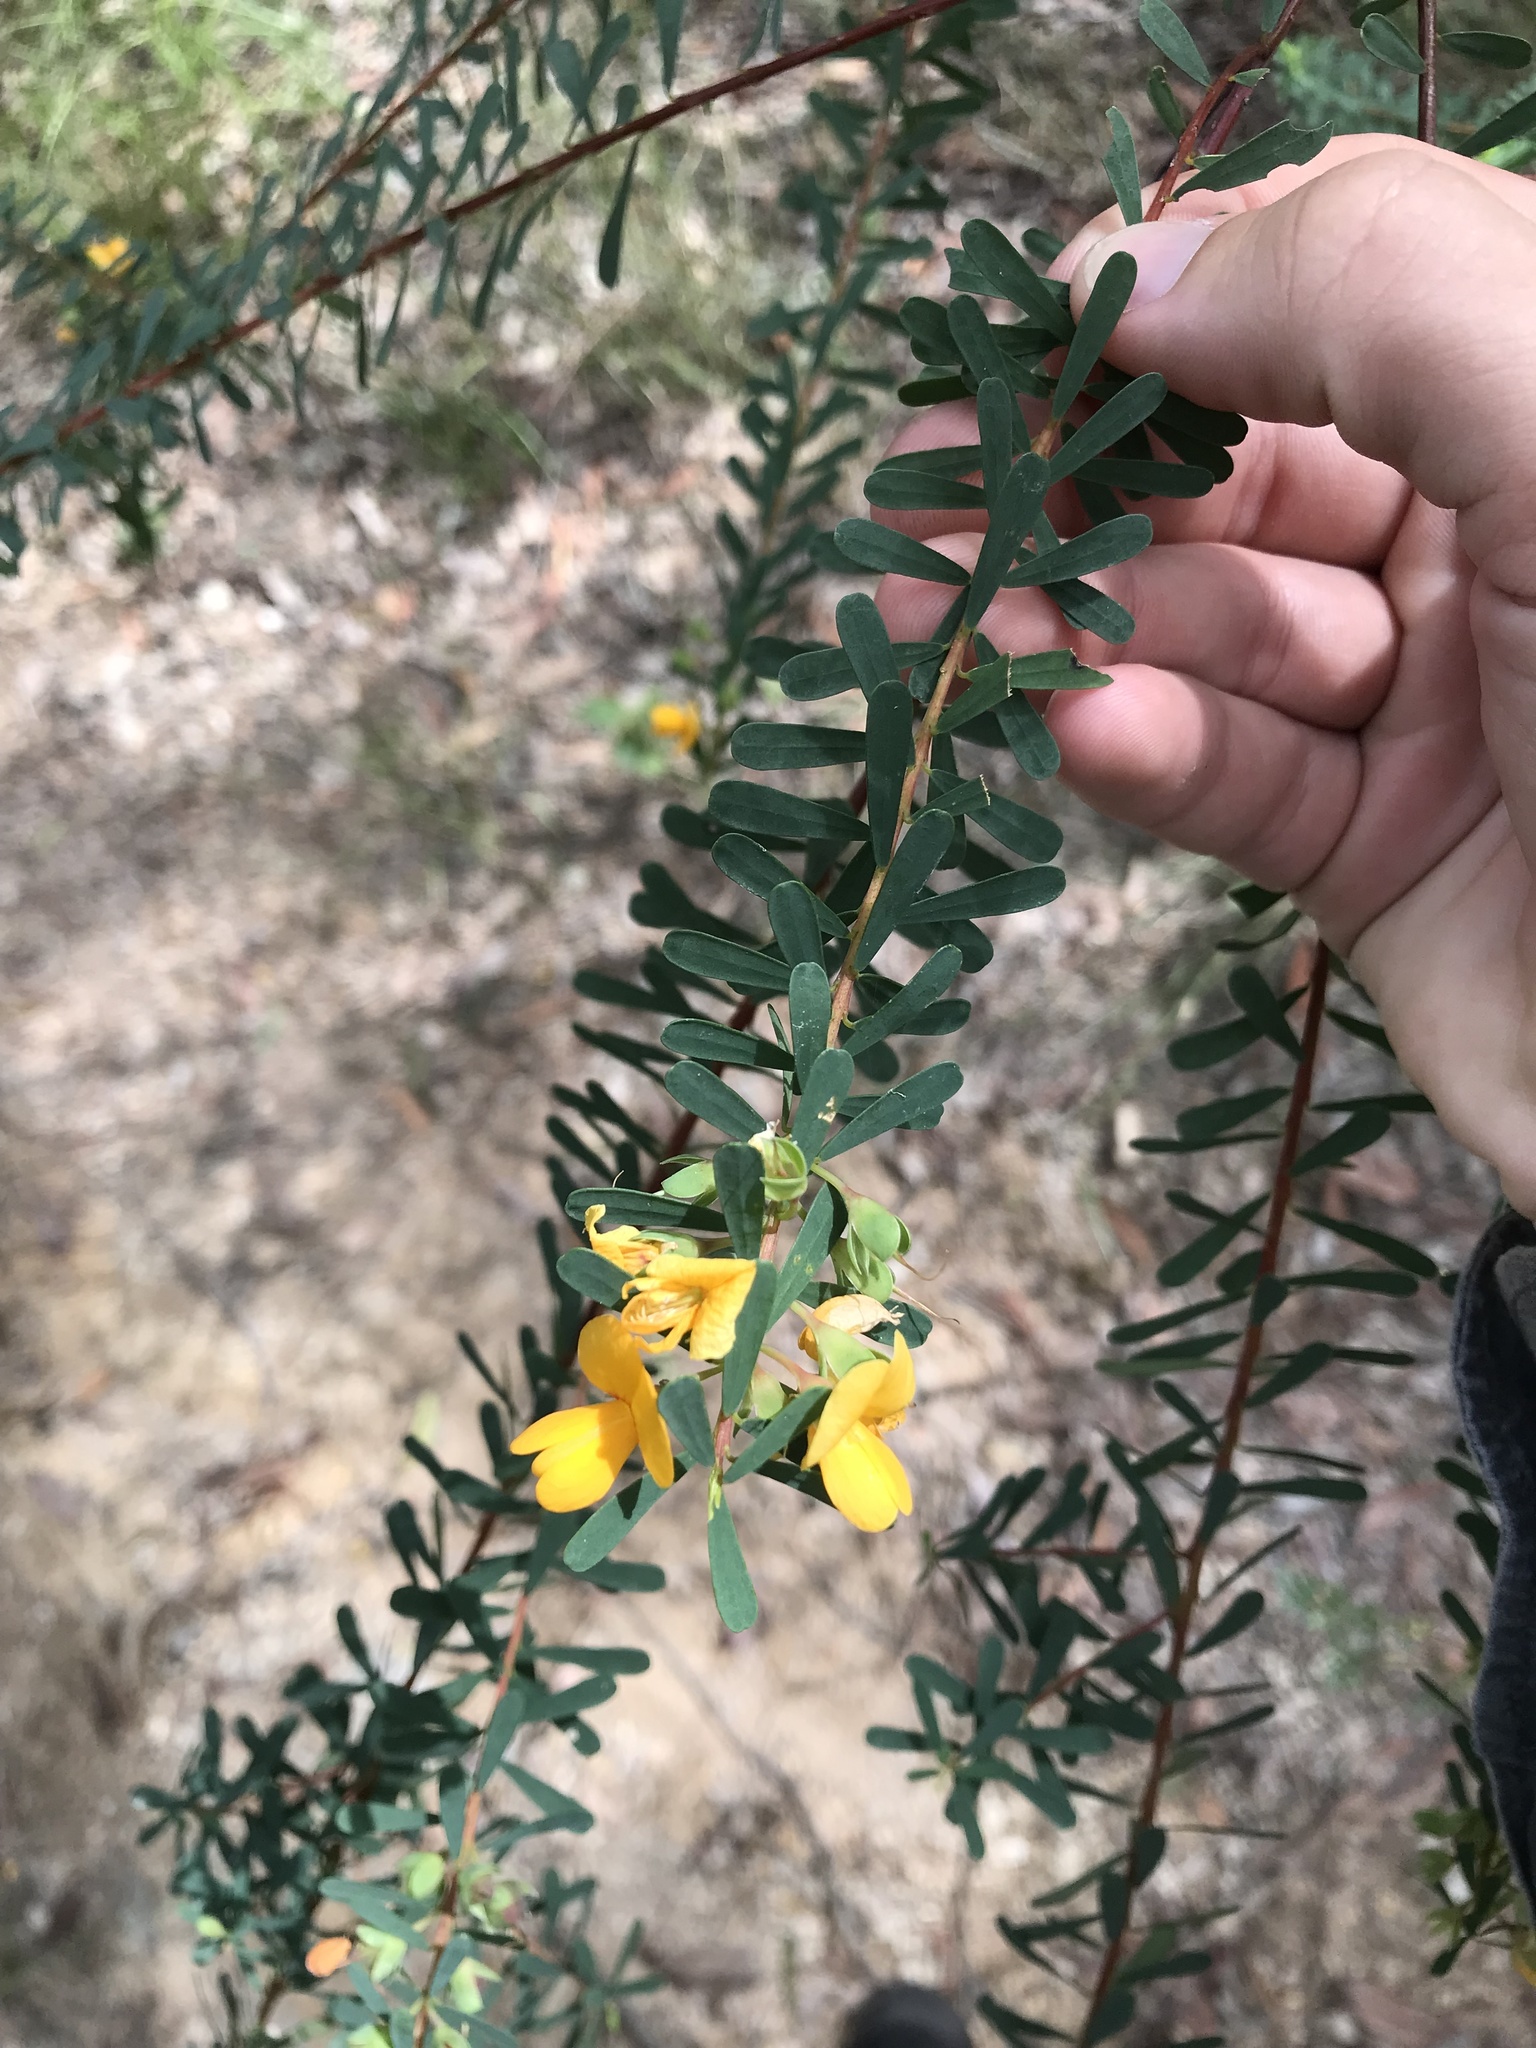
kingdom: Plantae
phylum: Tracheophyta
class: Magnoliopsida
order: Fabales
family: Fabaceae
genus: Pultenaea
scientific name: Pultenaea euchila
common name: Large-flower bush-pea
